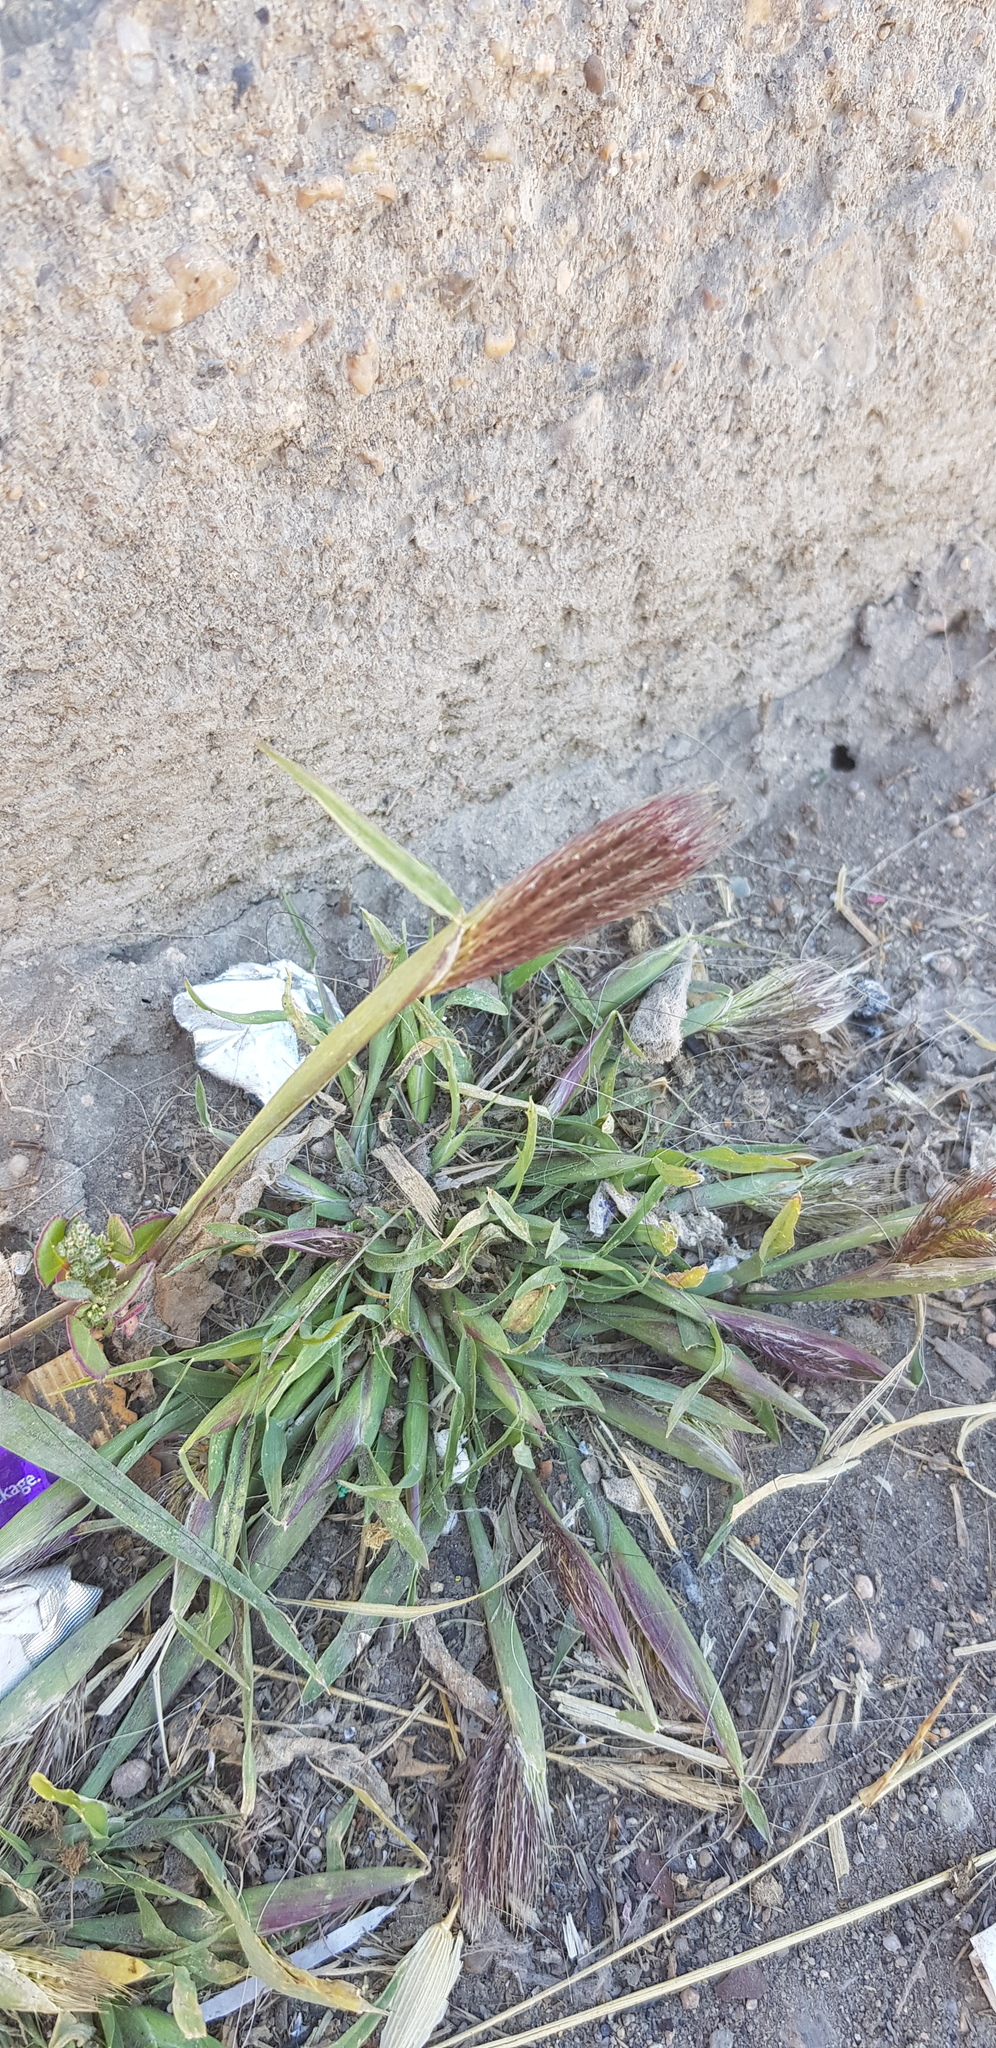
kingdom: Plantae
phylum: Tracheophyta
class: Liliopsida
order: Poales
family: Poaceae
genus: Chloris
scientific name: Chloris virgata
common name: Feathery rhodes-grass
